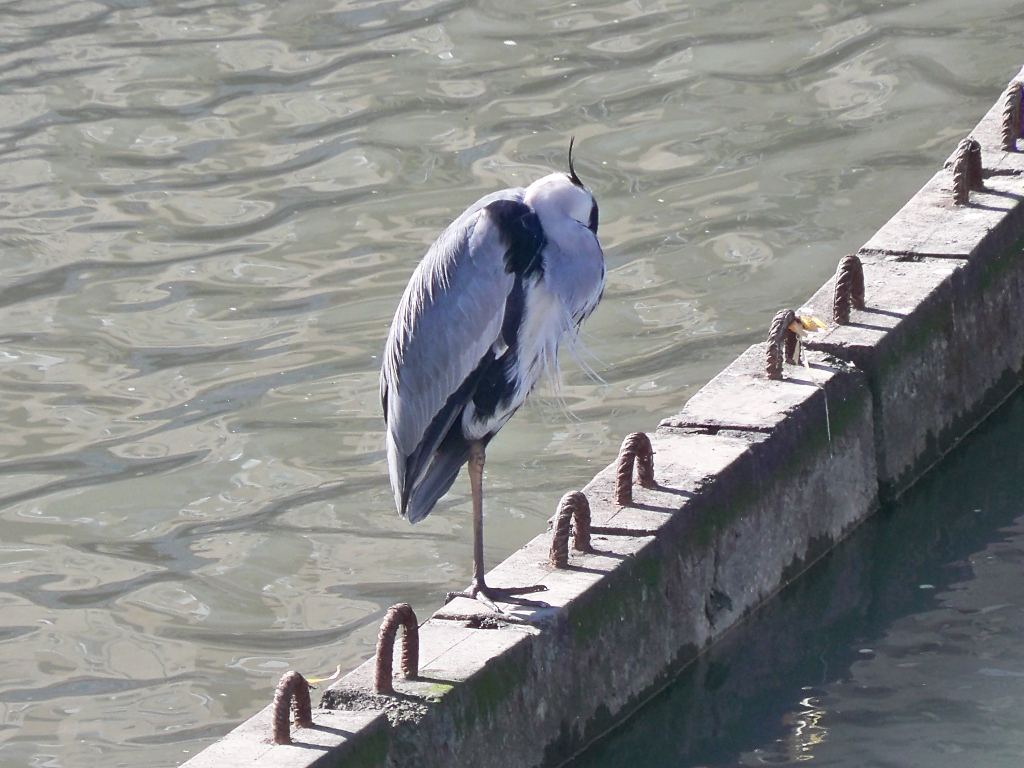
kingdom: Animalia
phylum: Chordata
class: Aves
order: Pelecaniformes
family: Ardeidae
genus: Ardea
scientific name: Ardea cinerea
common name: Grey heron
